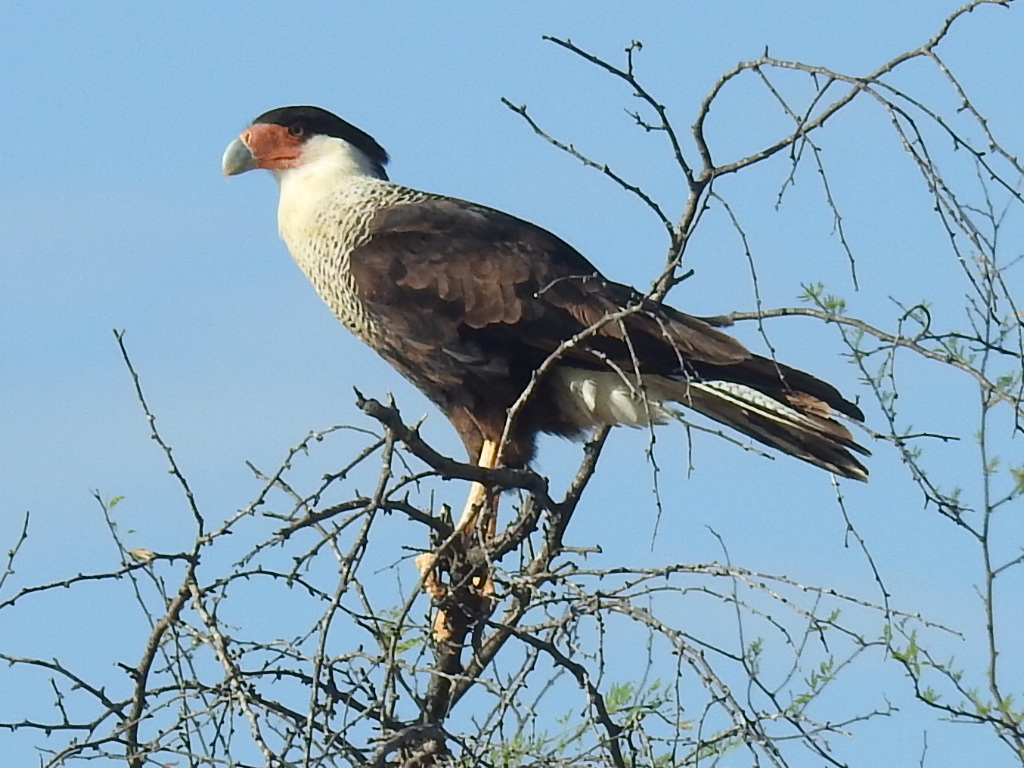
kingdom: Animalia
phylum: Chordata
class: Aves
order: Falconiformes
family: Falconidae
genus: Caracara
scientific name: Caracara plancus
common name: Southern caracara
